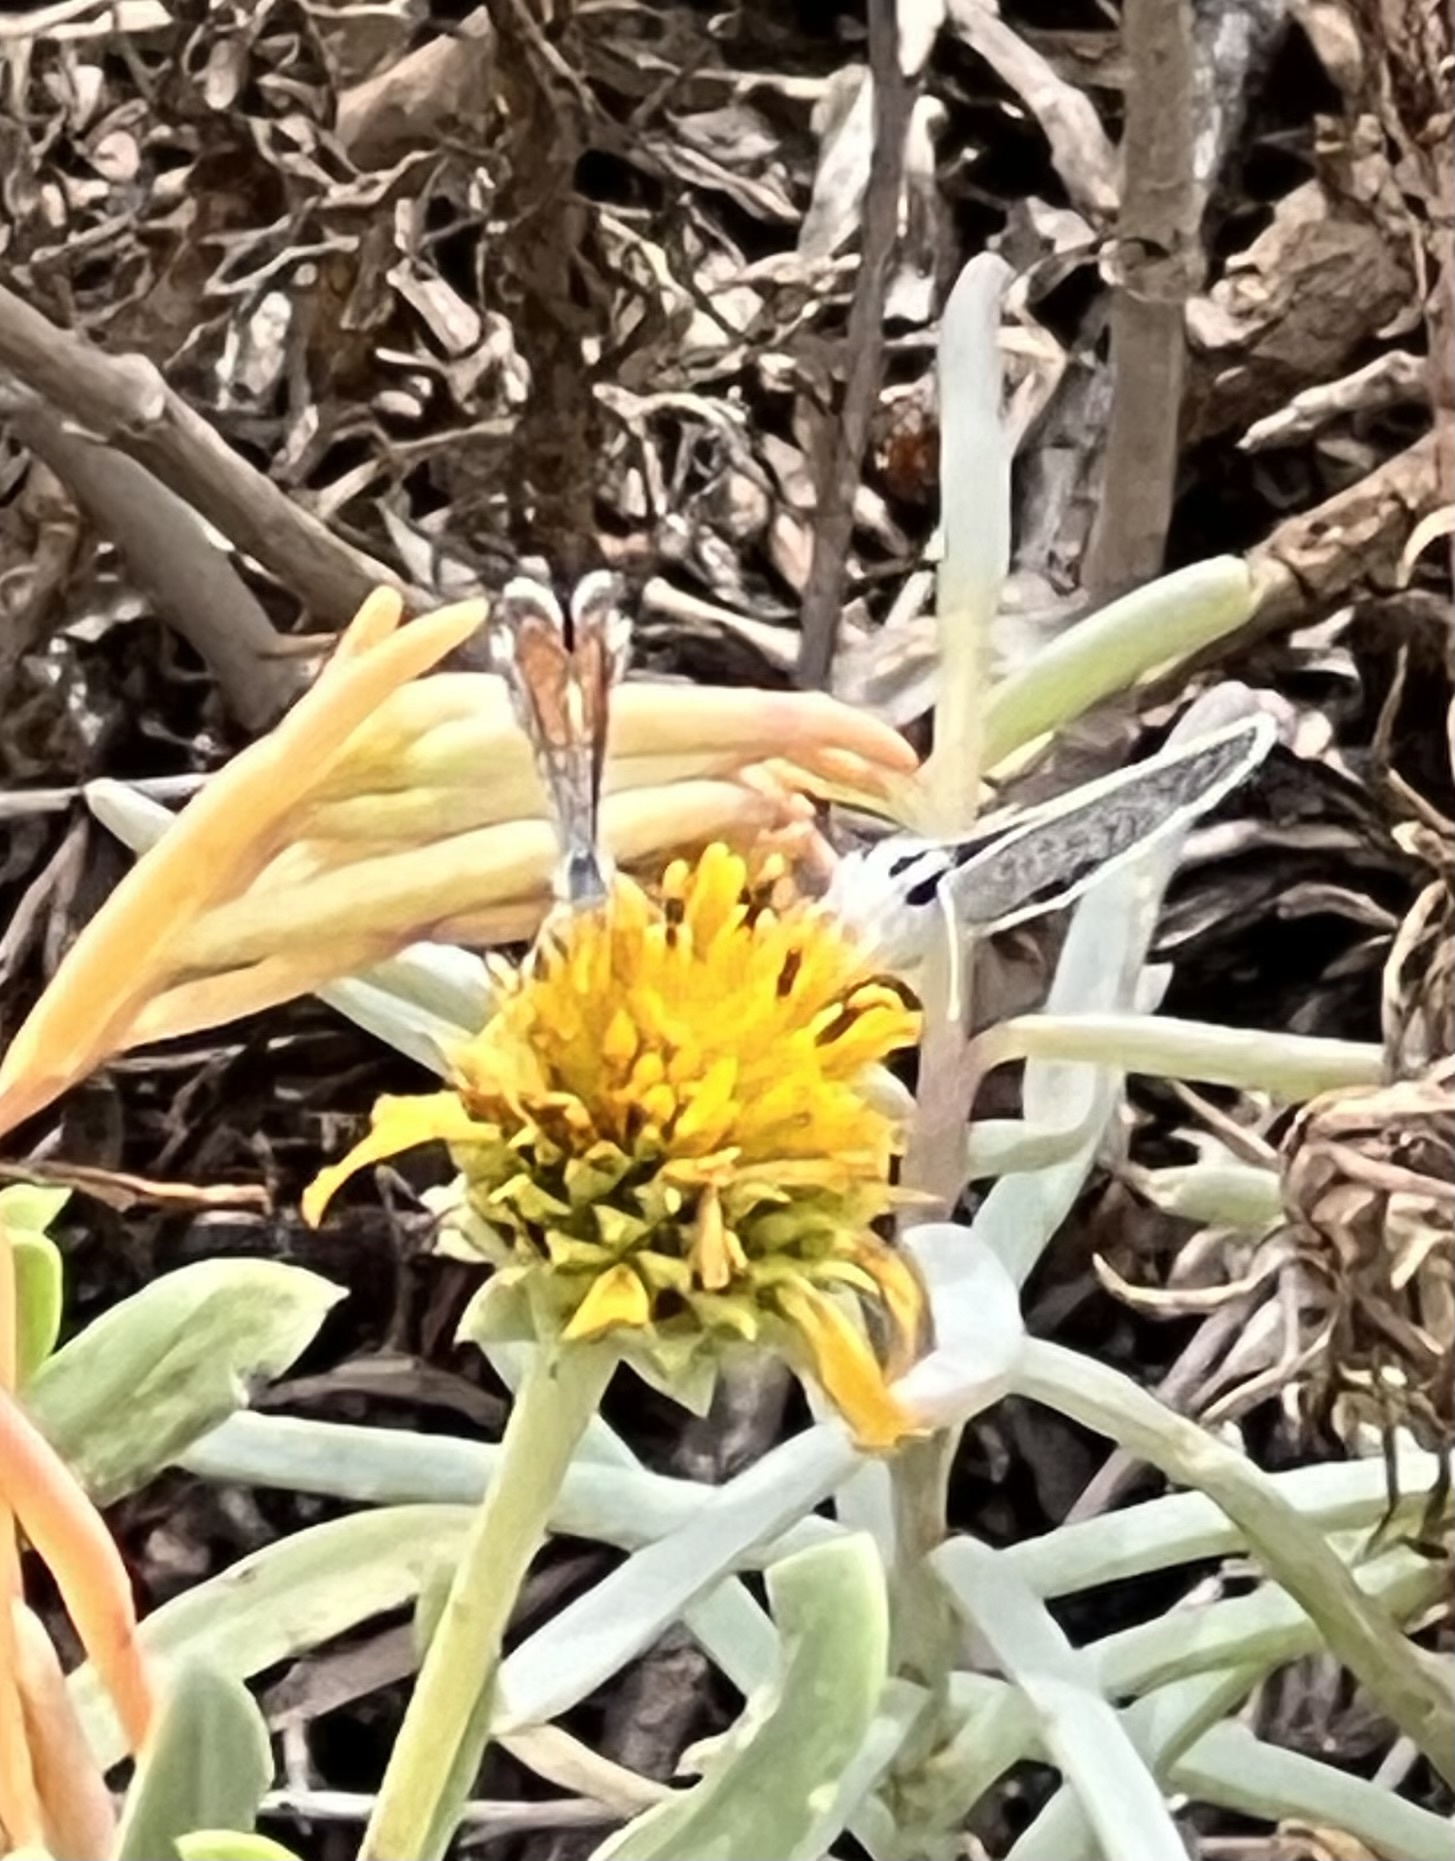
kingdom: Animalia
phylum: Arthropoda
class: Insecta
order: Lepidoptera
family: Lycaenidae
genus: Hemiargus
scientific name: Hemiargus ceraunus
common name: Ceraunus blue
